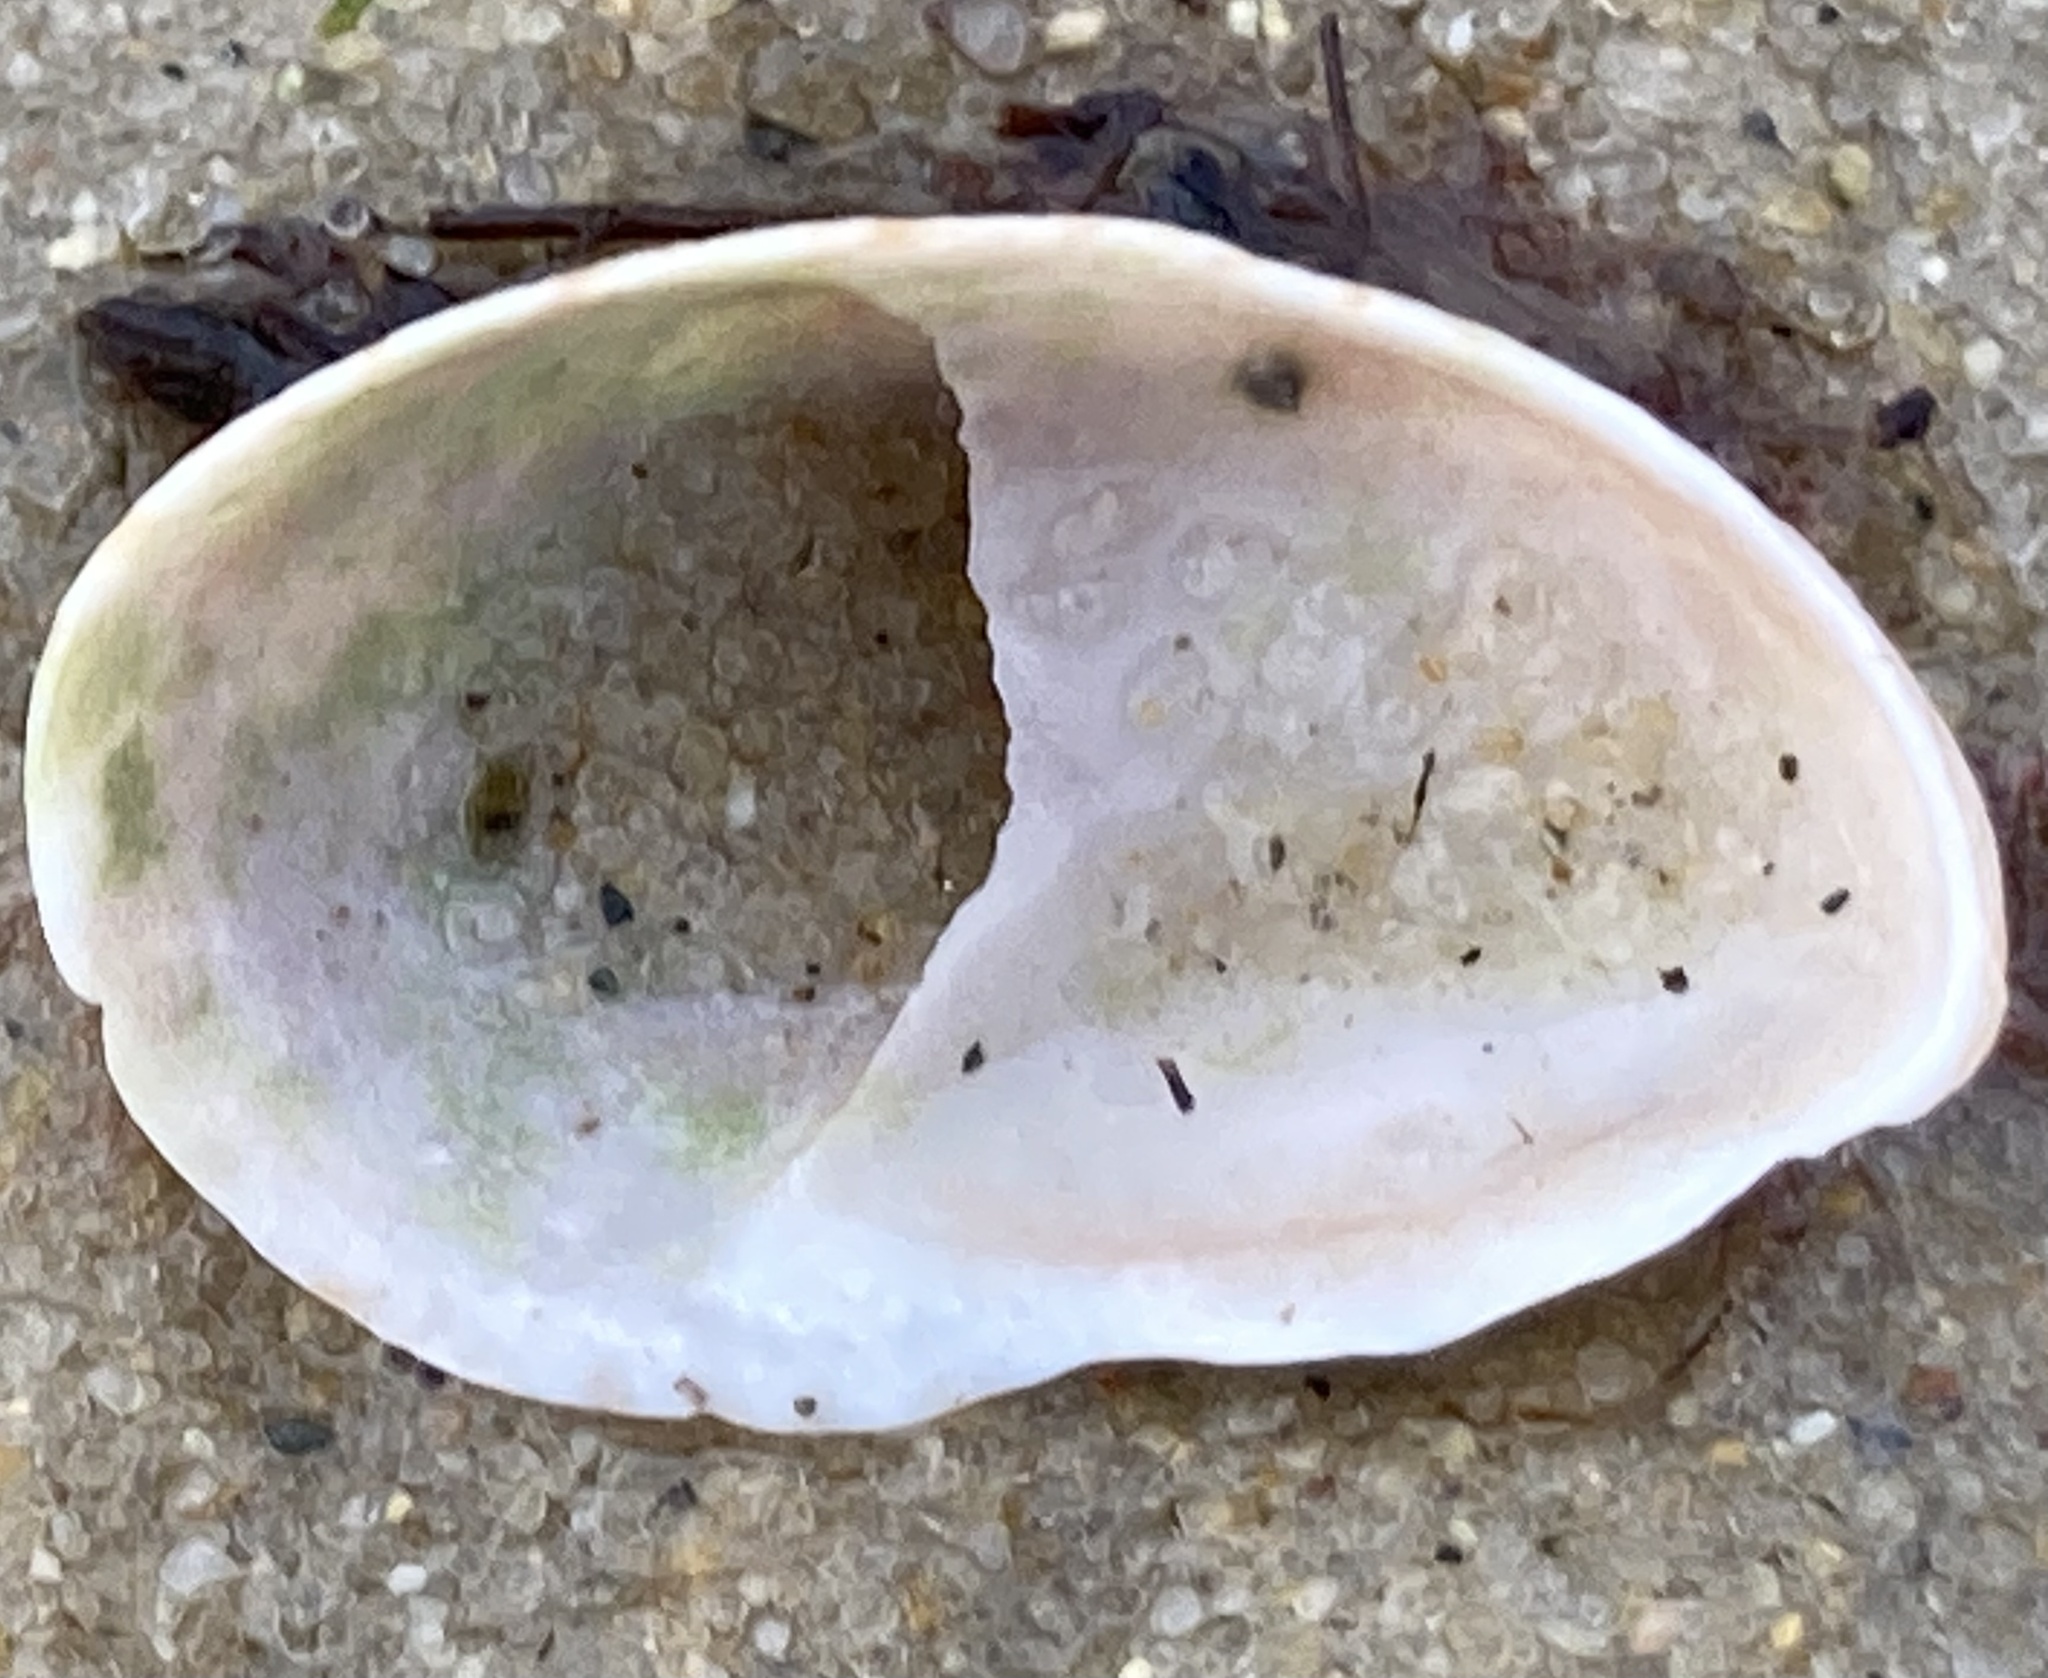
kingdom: Animalia
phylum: Mollusca
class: Gastropoda
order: Littorinimorpha
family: Calyptraeidae
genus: Crepidula
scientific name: Crepidula fornicata
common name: Slipper limpet
